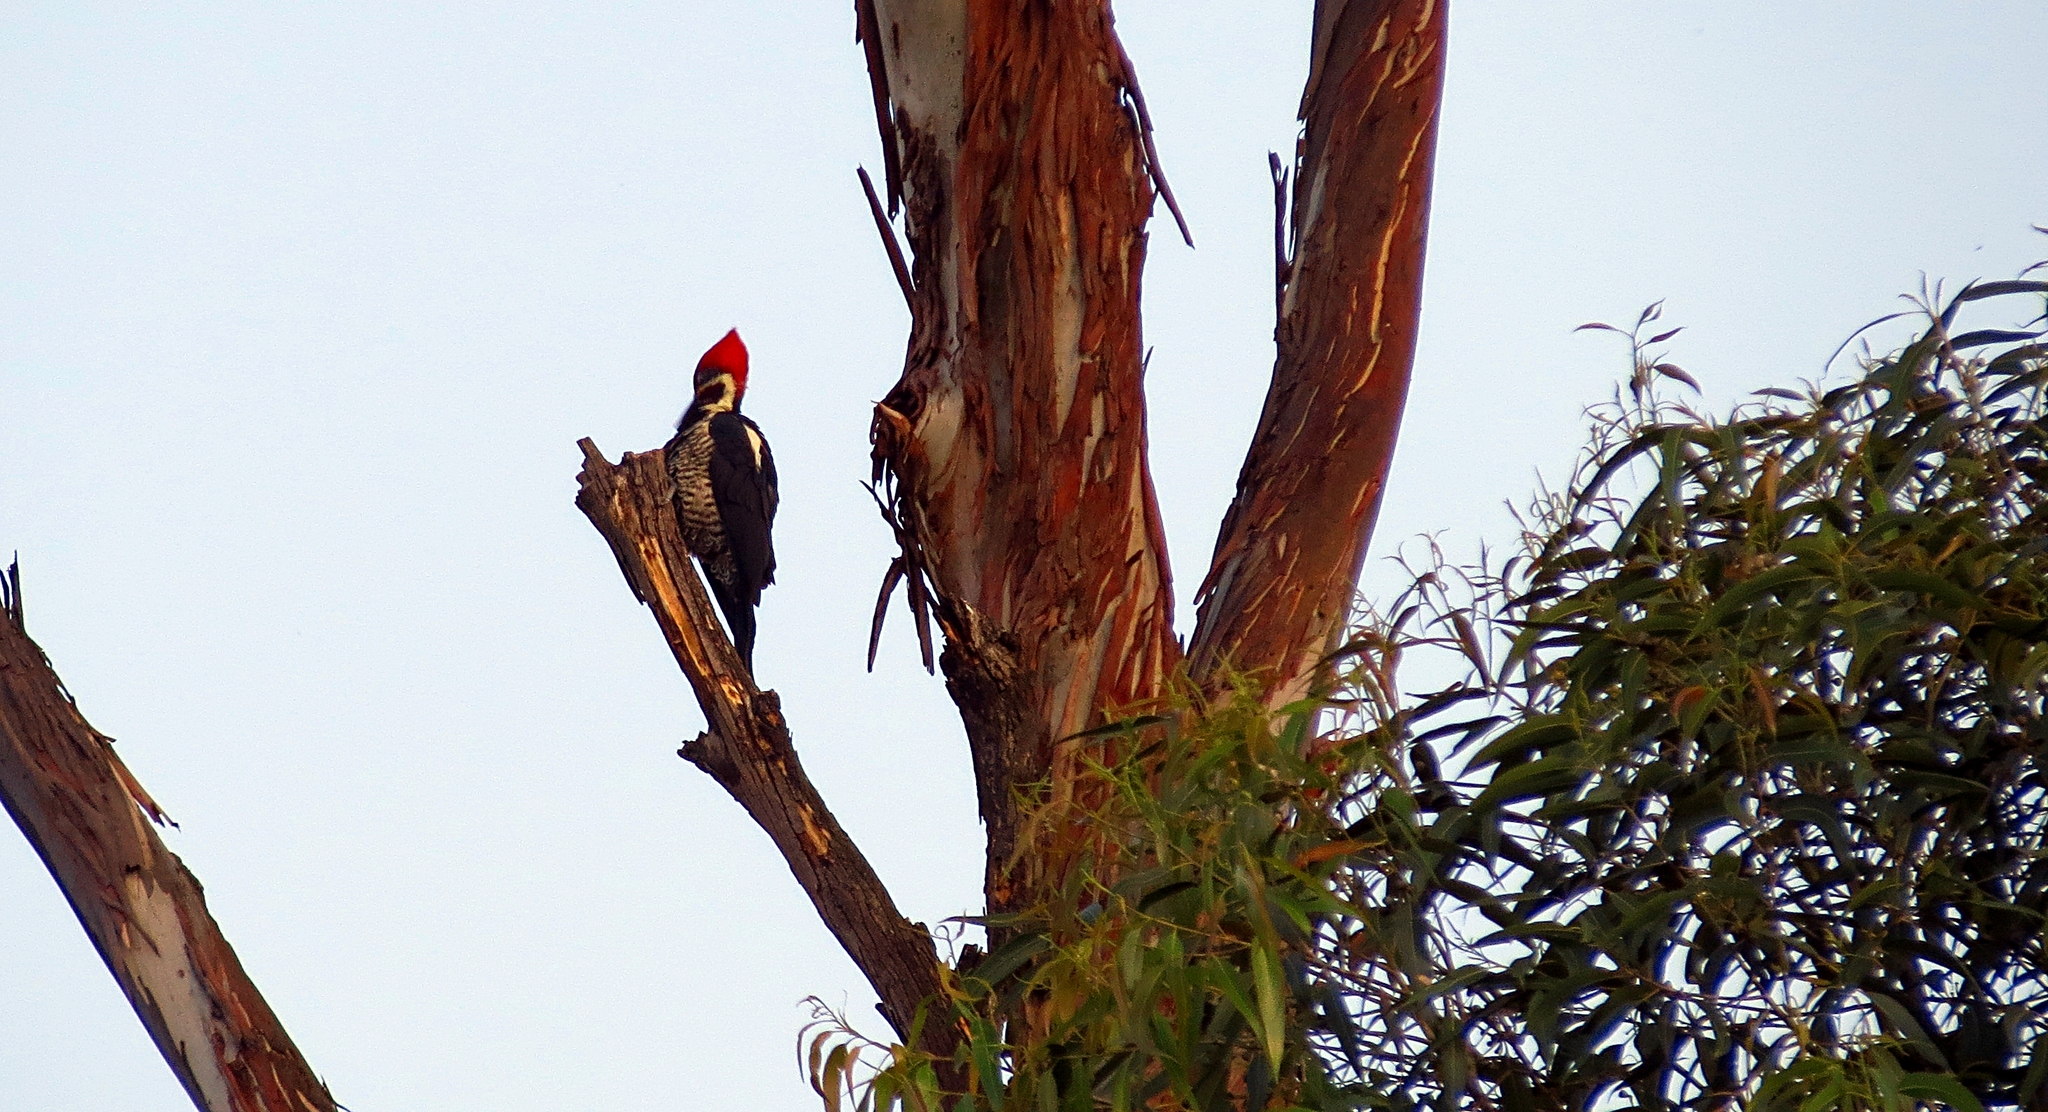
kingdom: Animalia
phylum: Chordata
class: Aves
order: Piciformes
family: Picidae
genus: Dryocopus
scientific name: Dryocopus lineatus
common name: Lineated woodpecker
